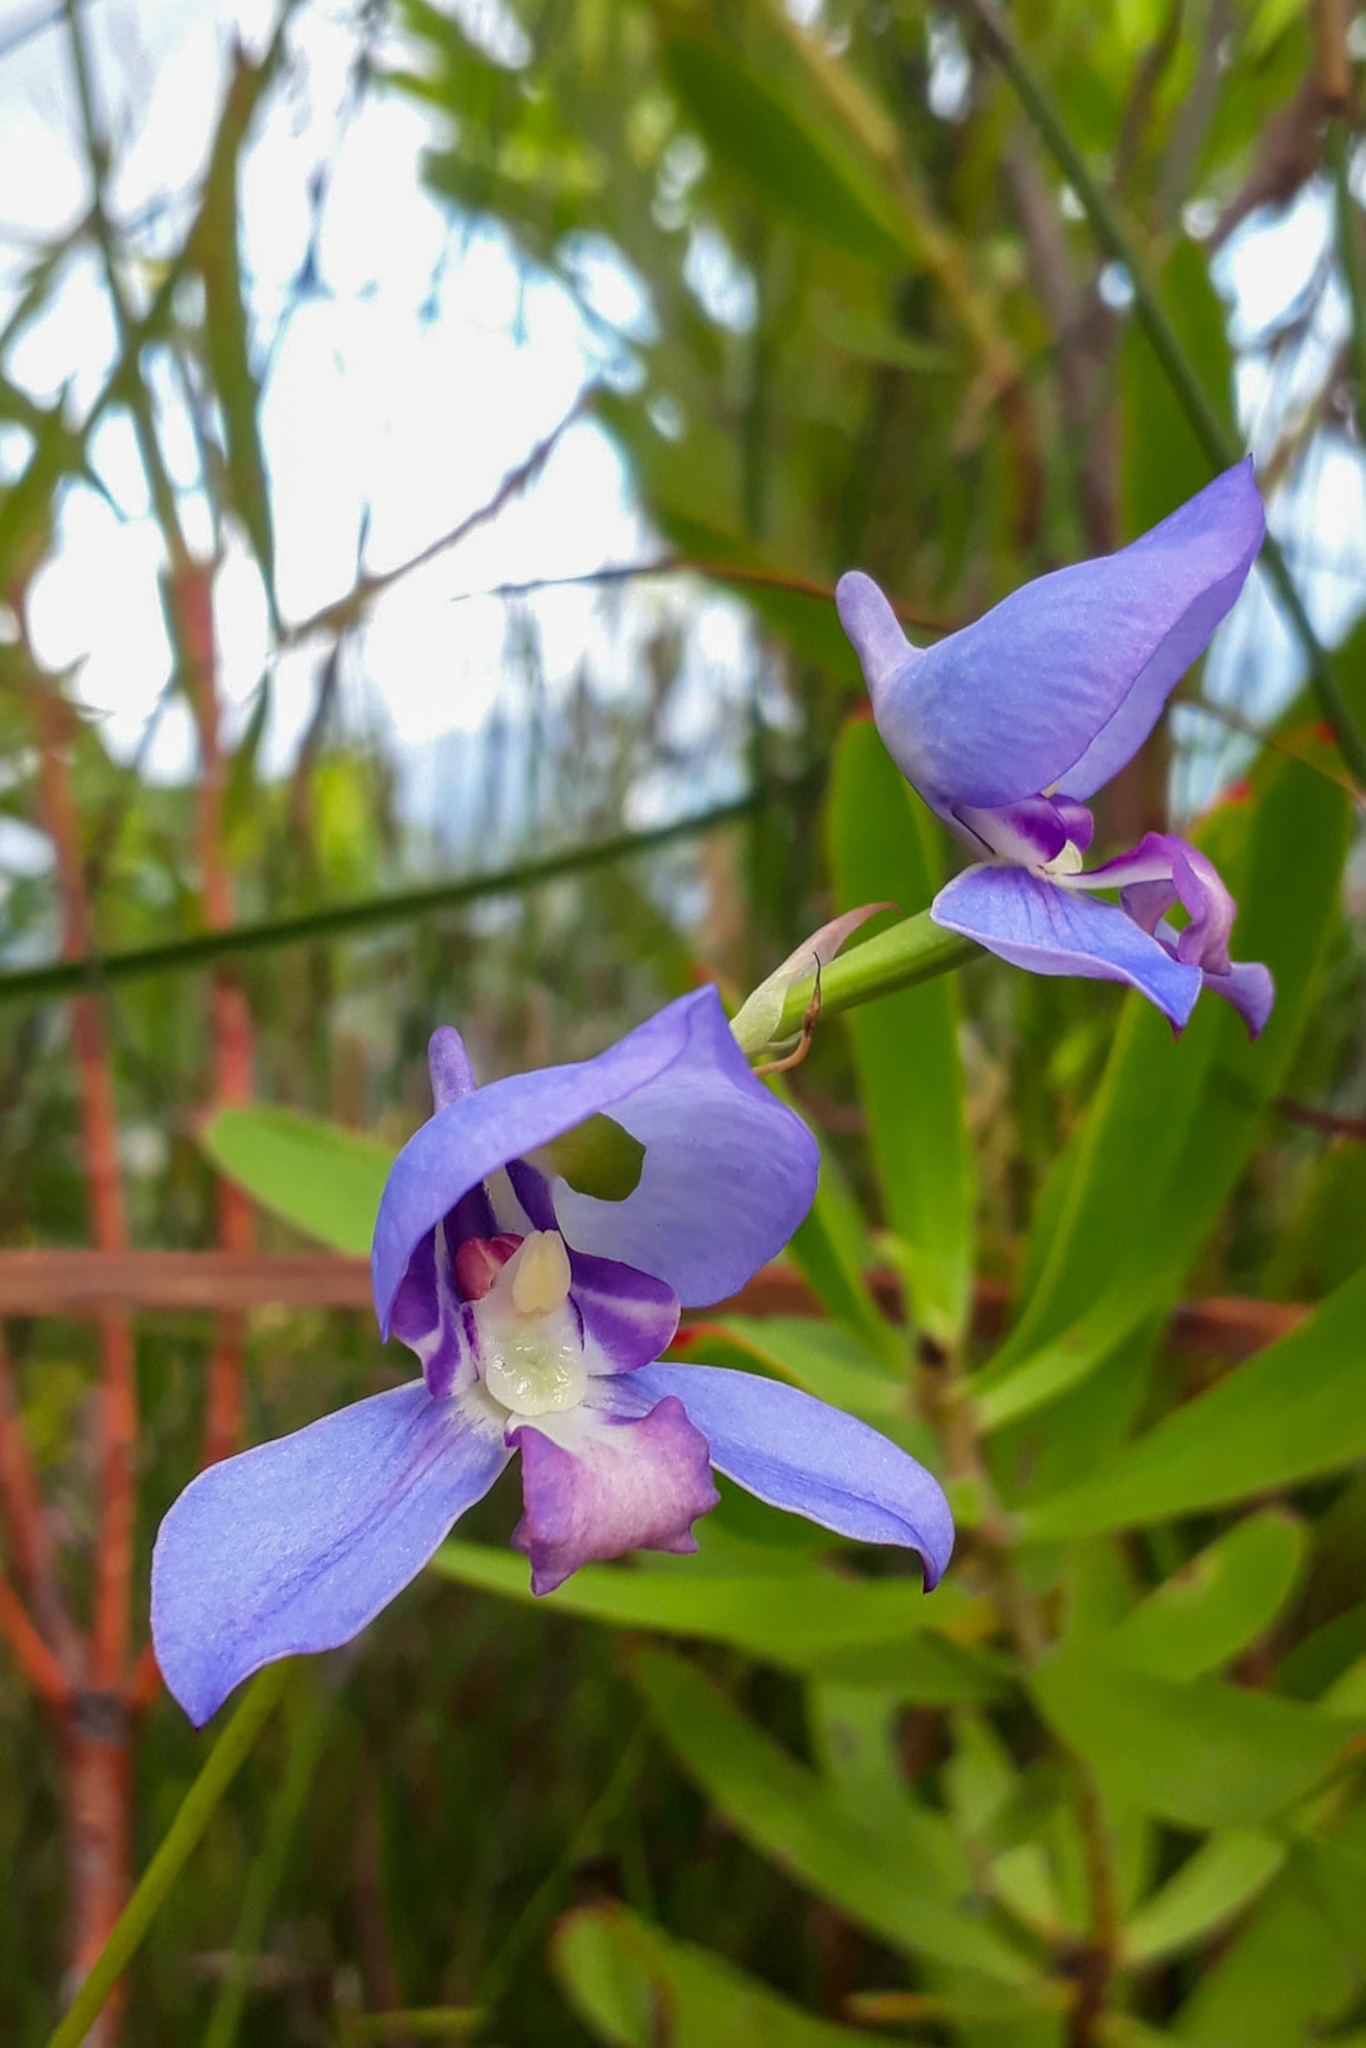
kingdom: Plantae
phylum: Tracheophyta
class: Liliopsida
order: Asparagales
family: Orchidaceae
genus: Disa
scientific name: Disa graminifolia
